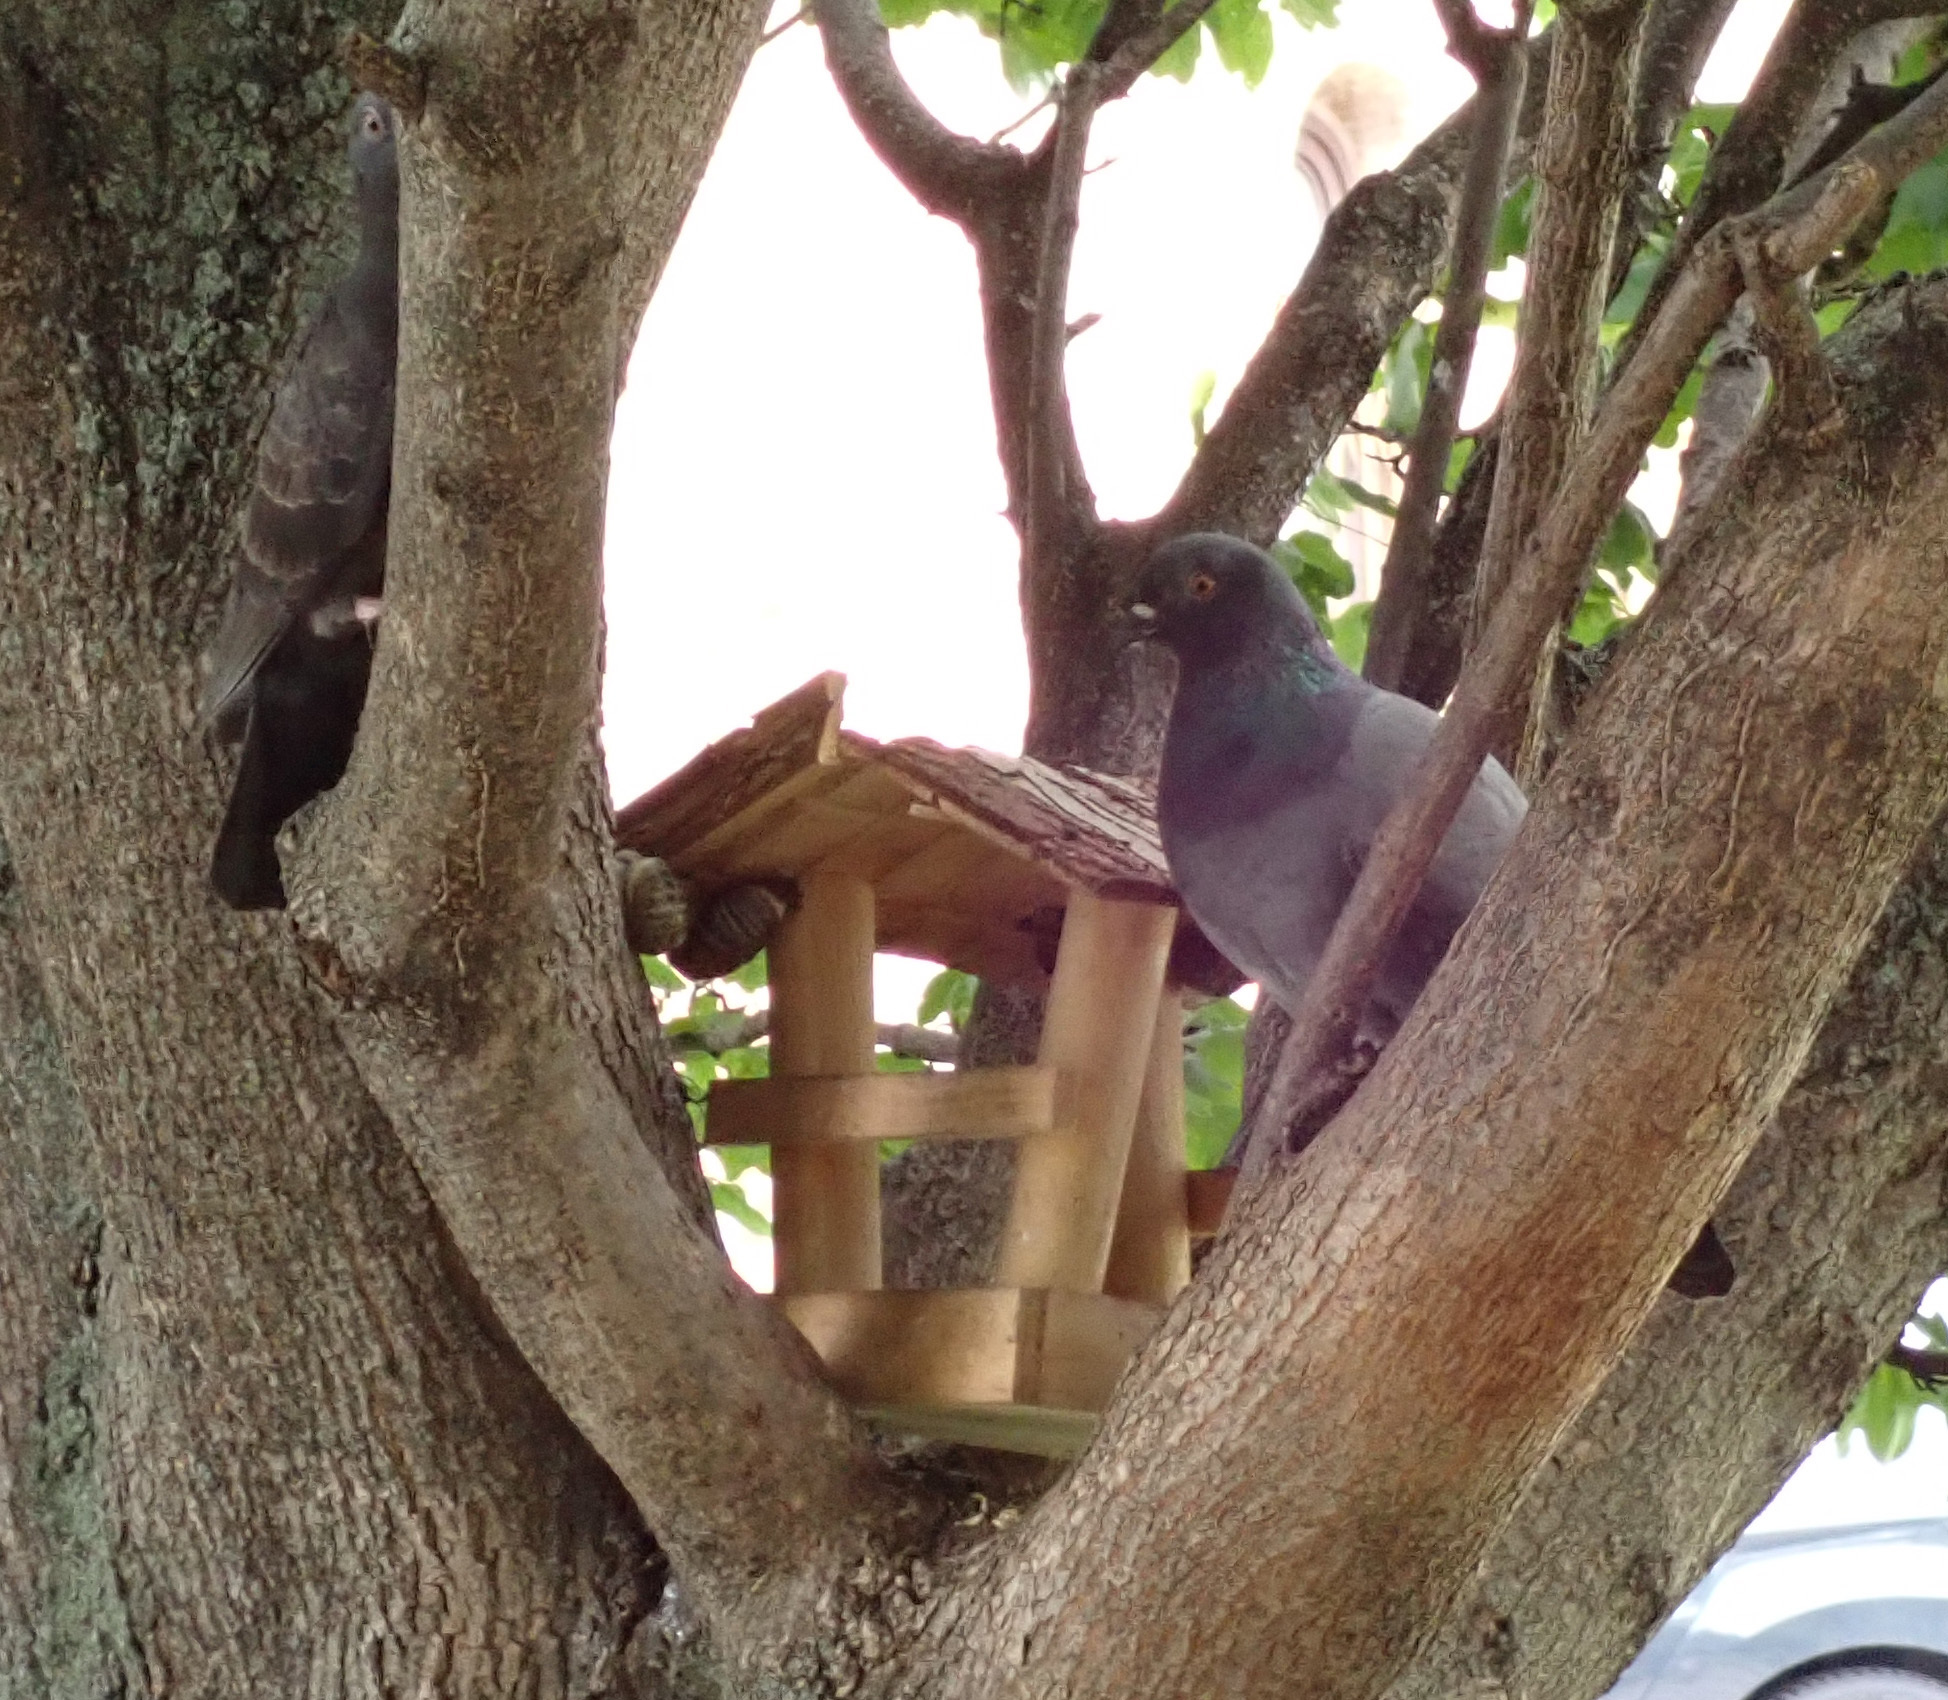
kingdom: Animalia
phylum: Chordata
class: Aves
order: Columbiformes
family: Columbidae
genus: Columba
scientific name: Columba livia
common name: Rock pigeon
